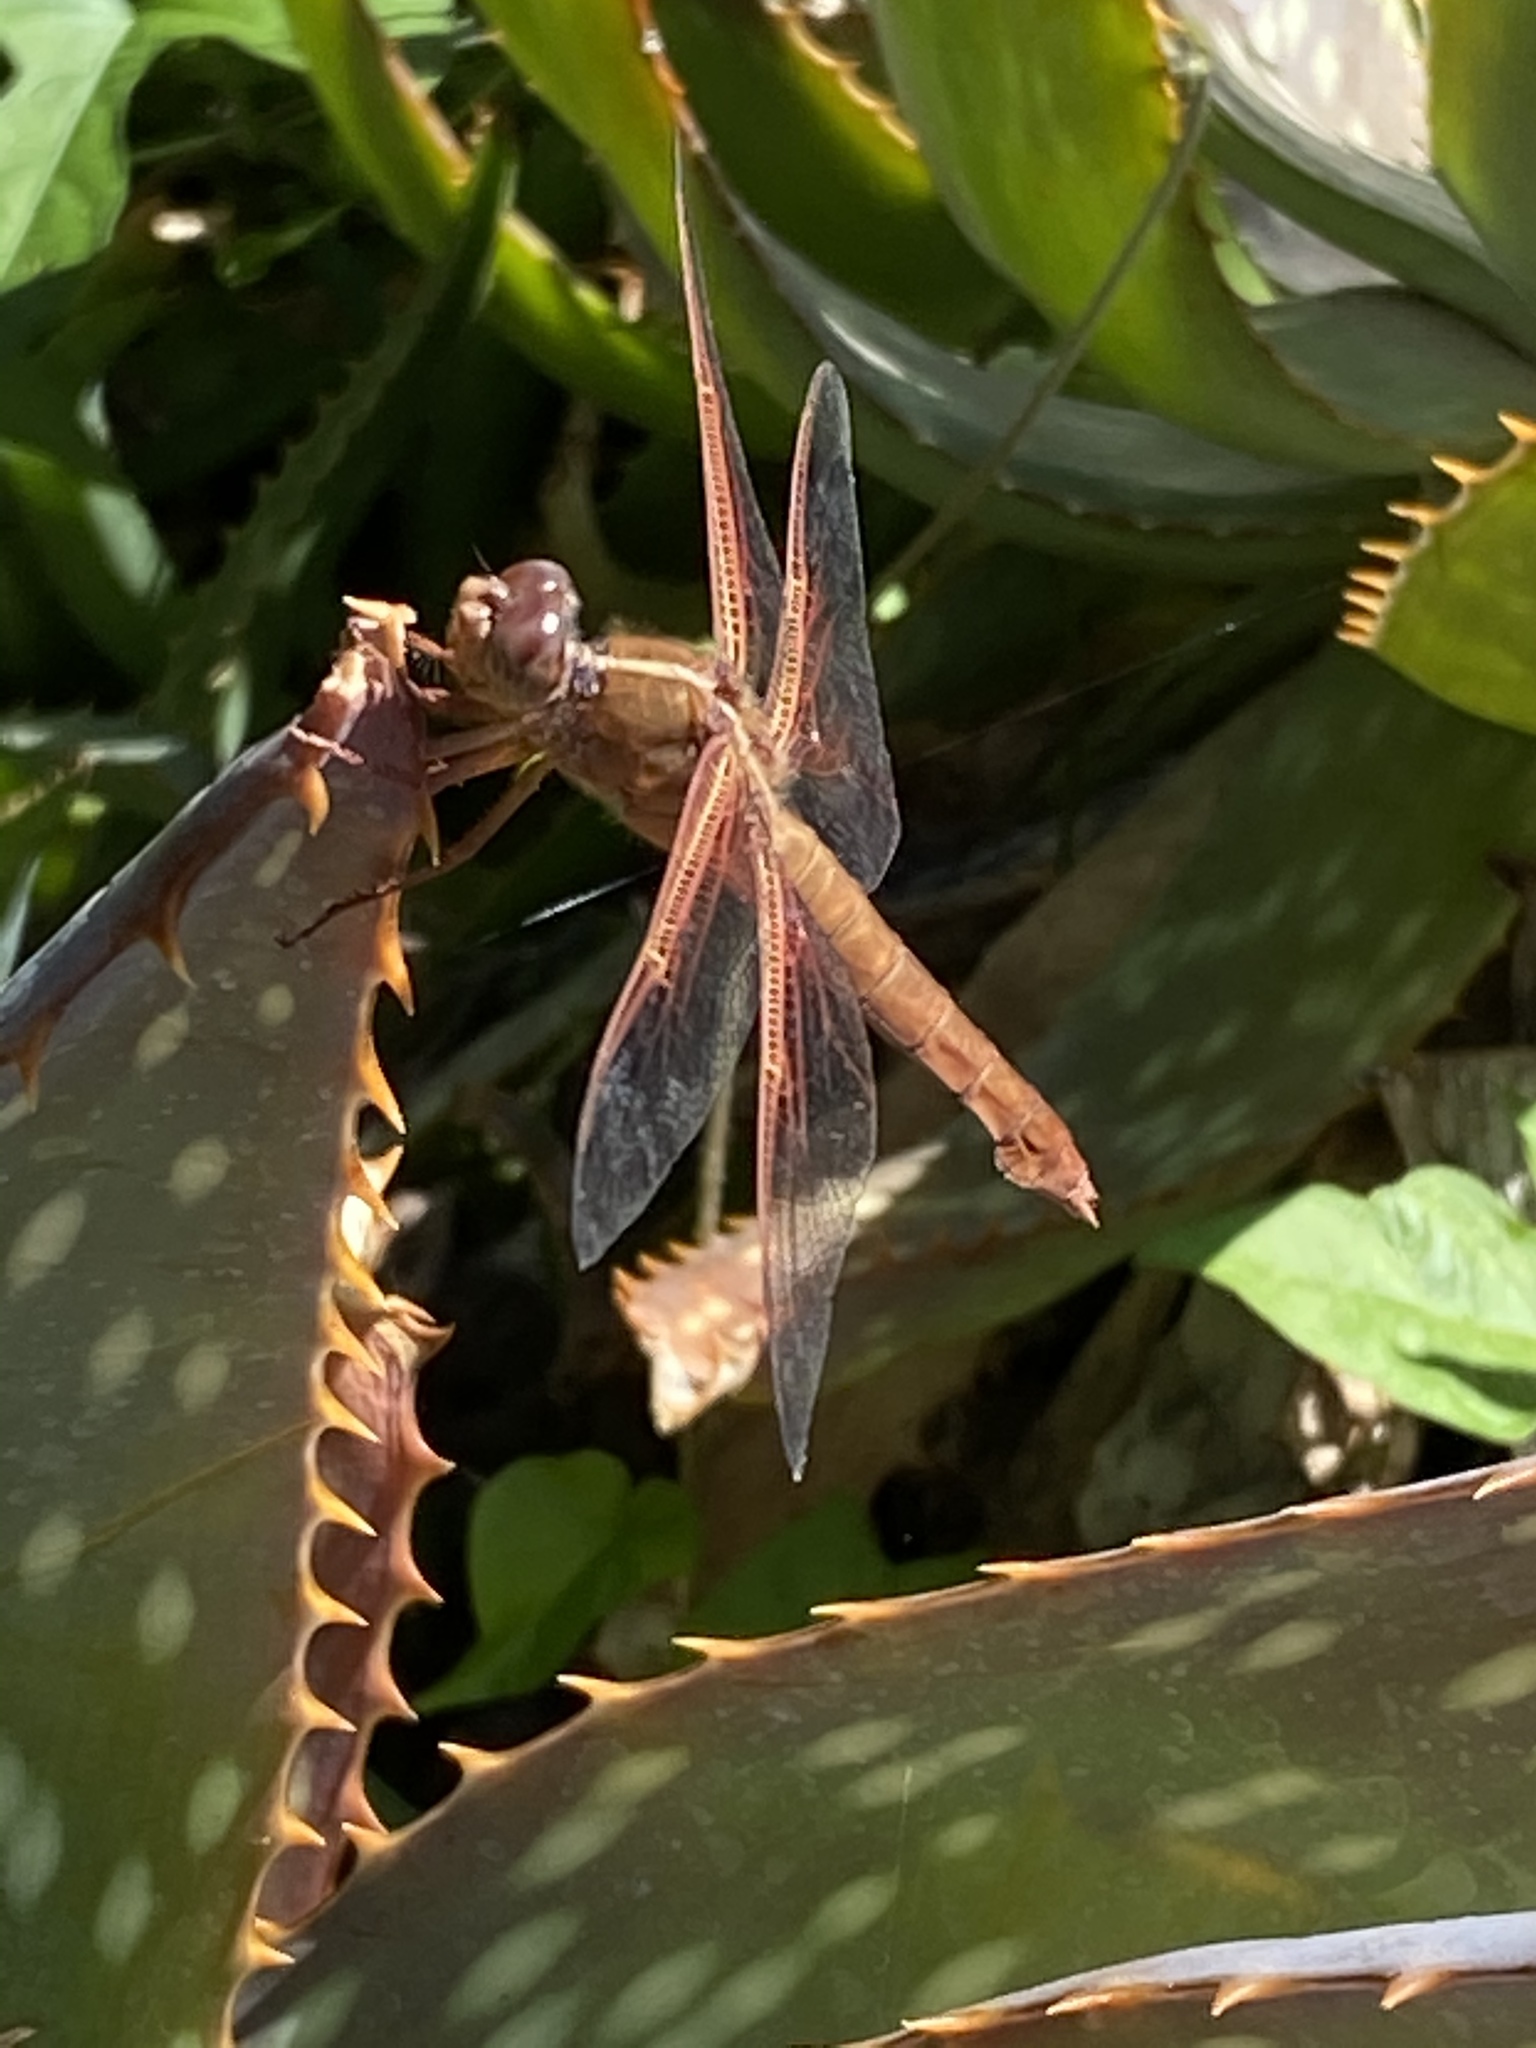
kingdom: Animalia
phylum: Arthropoda
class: Insecta
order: Odonata
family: Libellulidae
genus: Libellula
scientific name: Libellula saturata
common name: Flame skimmer
